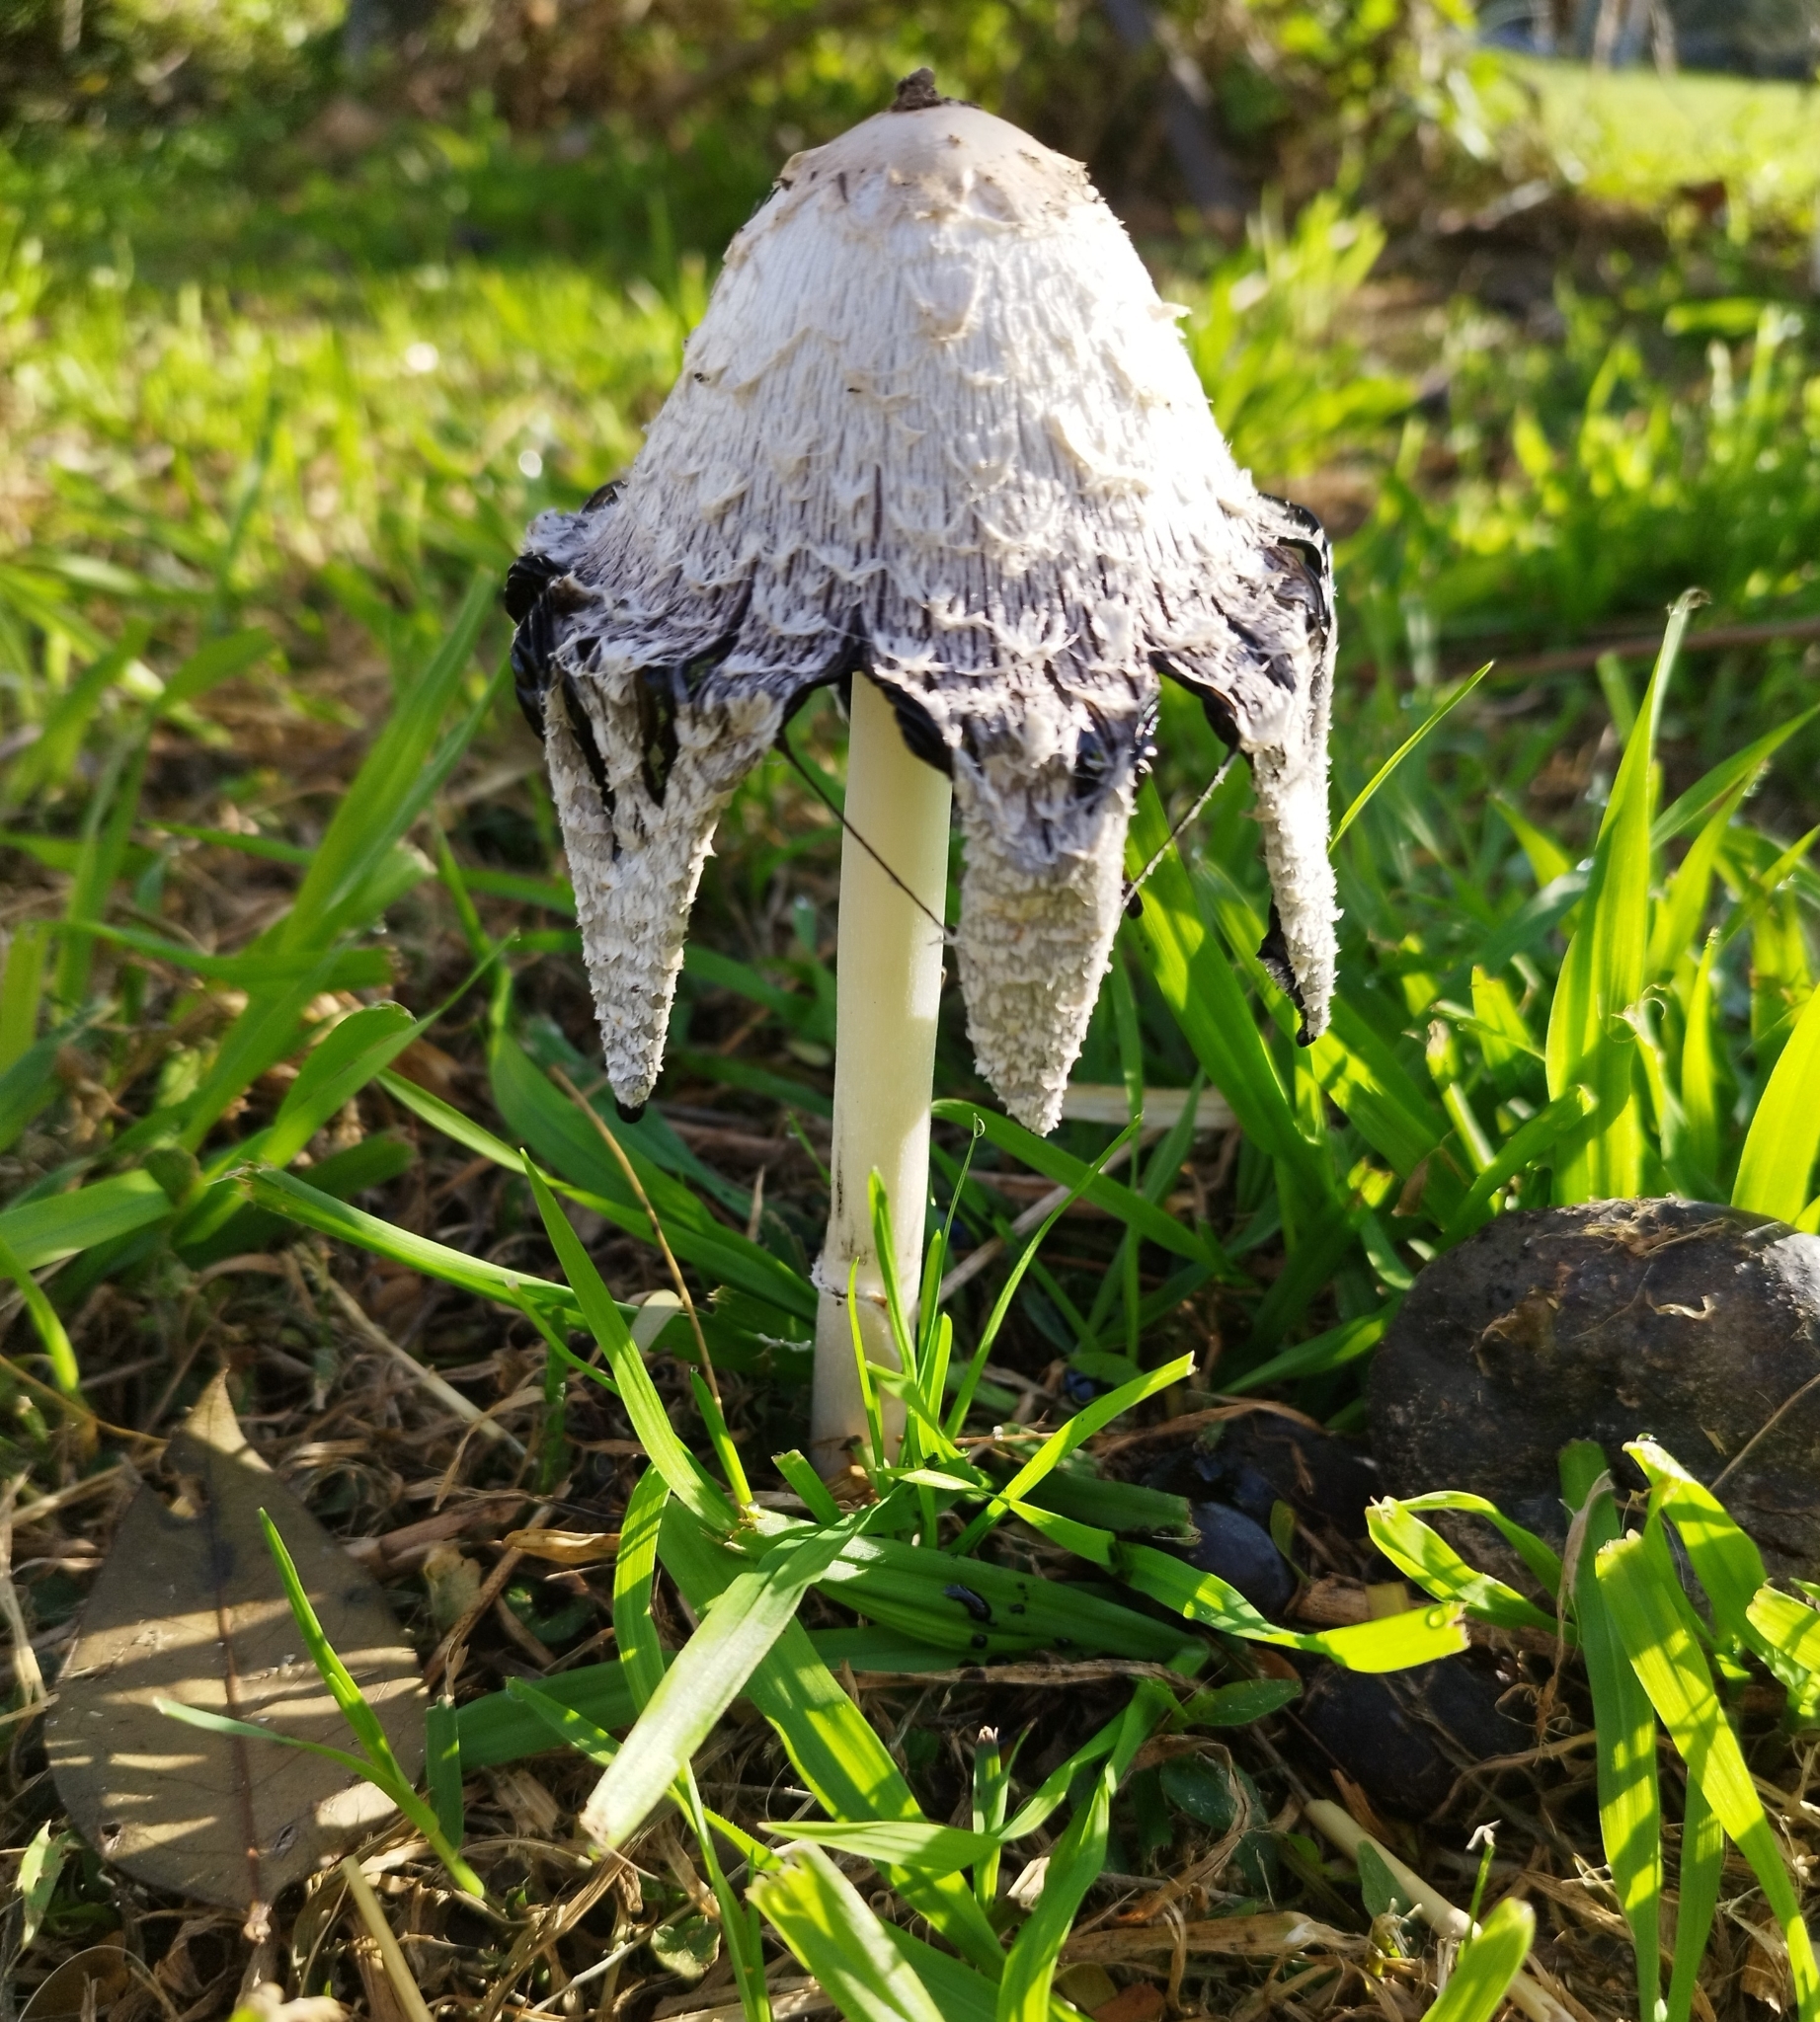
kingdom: Fungi
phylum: Basidiomycota
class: Agaricomycetes
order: Agaricales
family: Agaricaceae
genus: Coprinus
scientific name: Coprinus comatus
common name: Lawyer's wig
